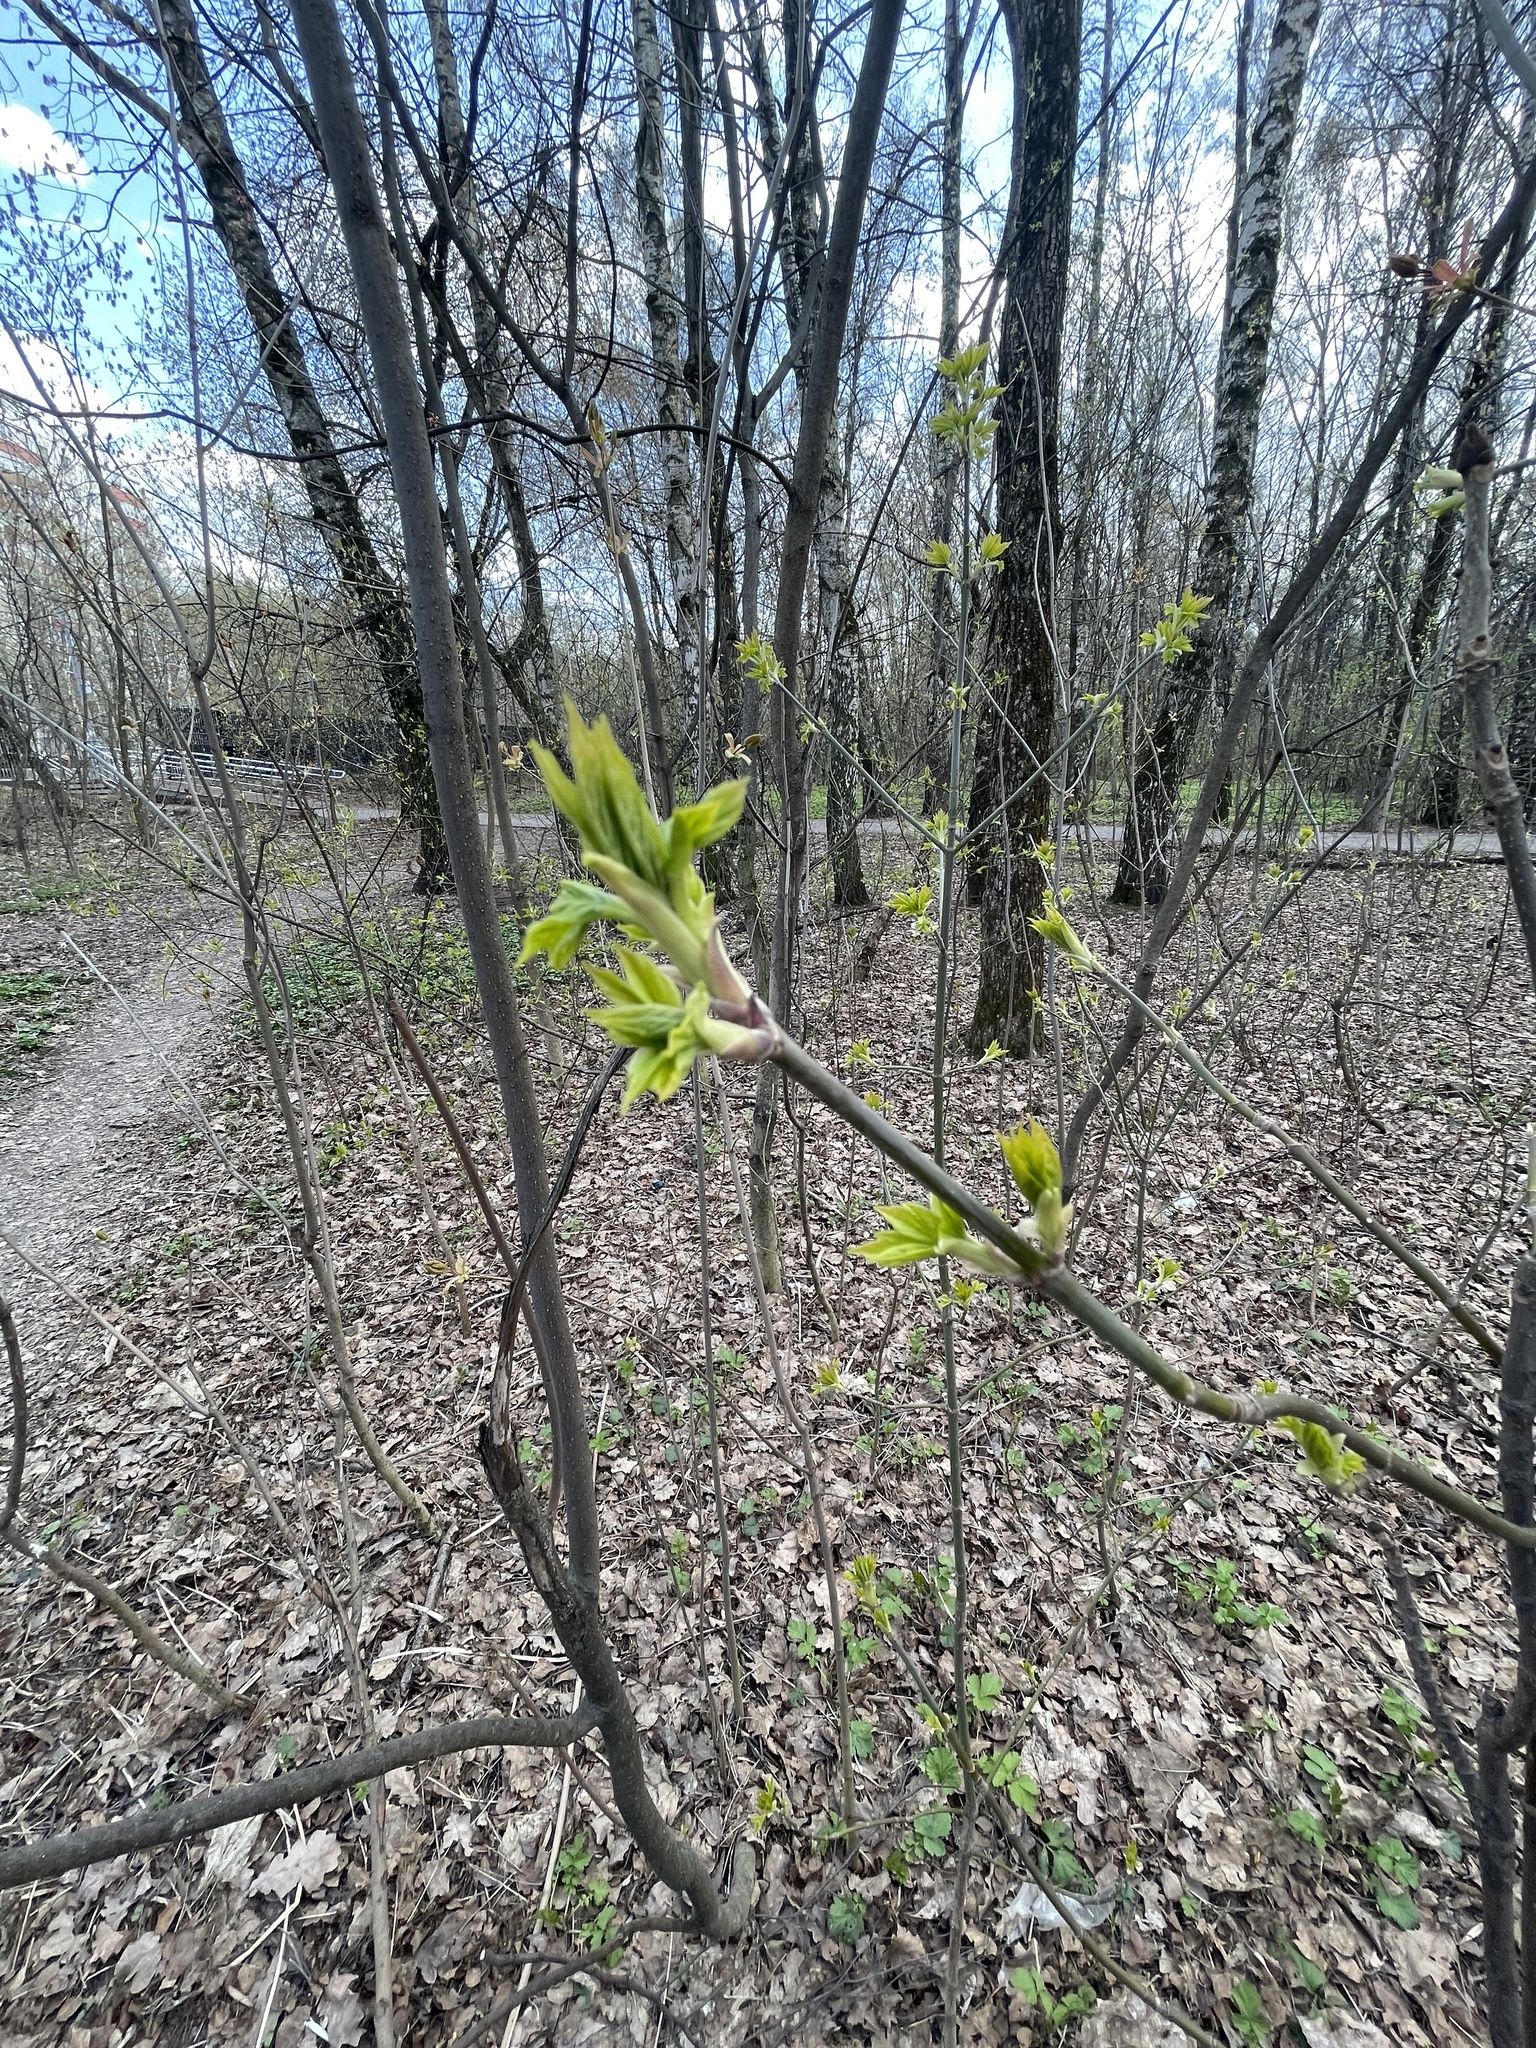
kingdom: Plantae
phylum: Tracheophyta
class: Magnoliopsida
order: Sapindales
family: Sapindaceae
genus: Acer
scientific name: Acer negundo
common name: Ashleaf maple
